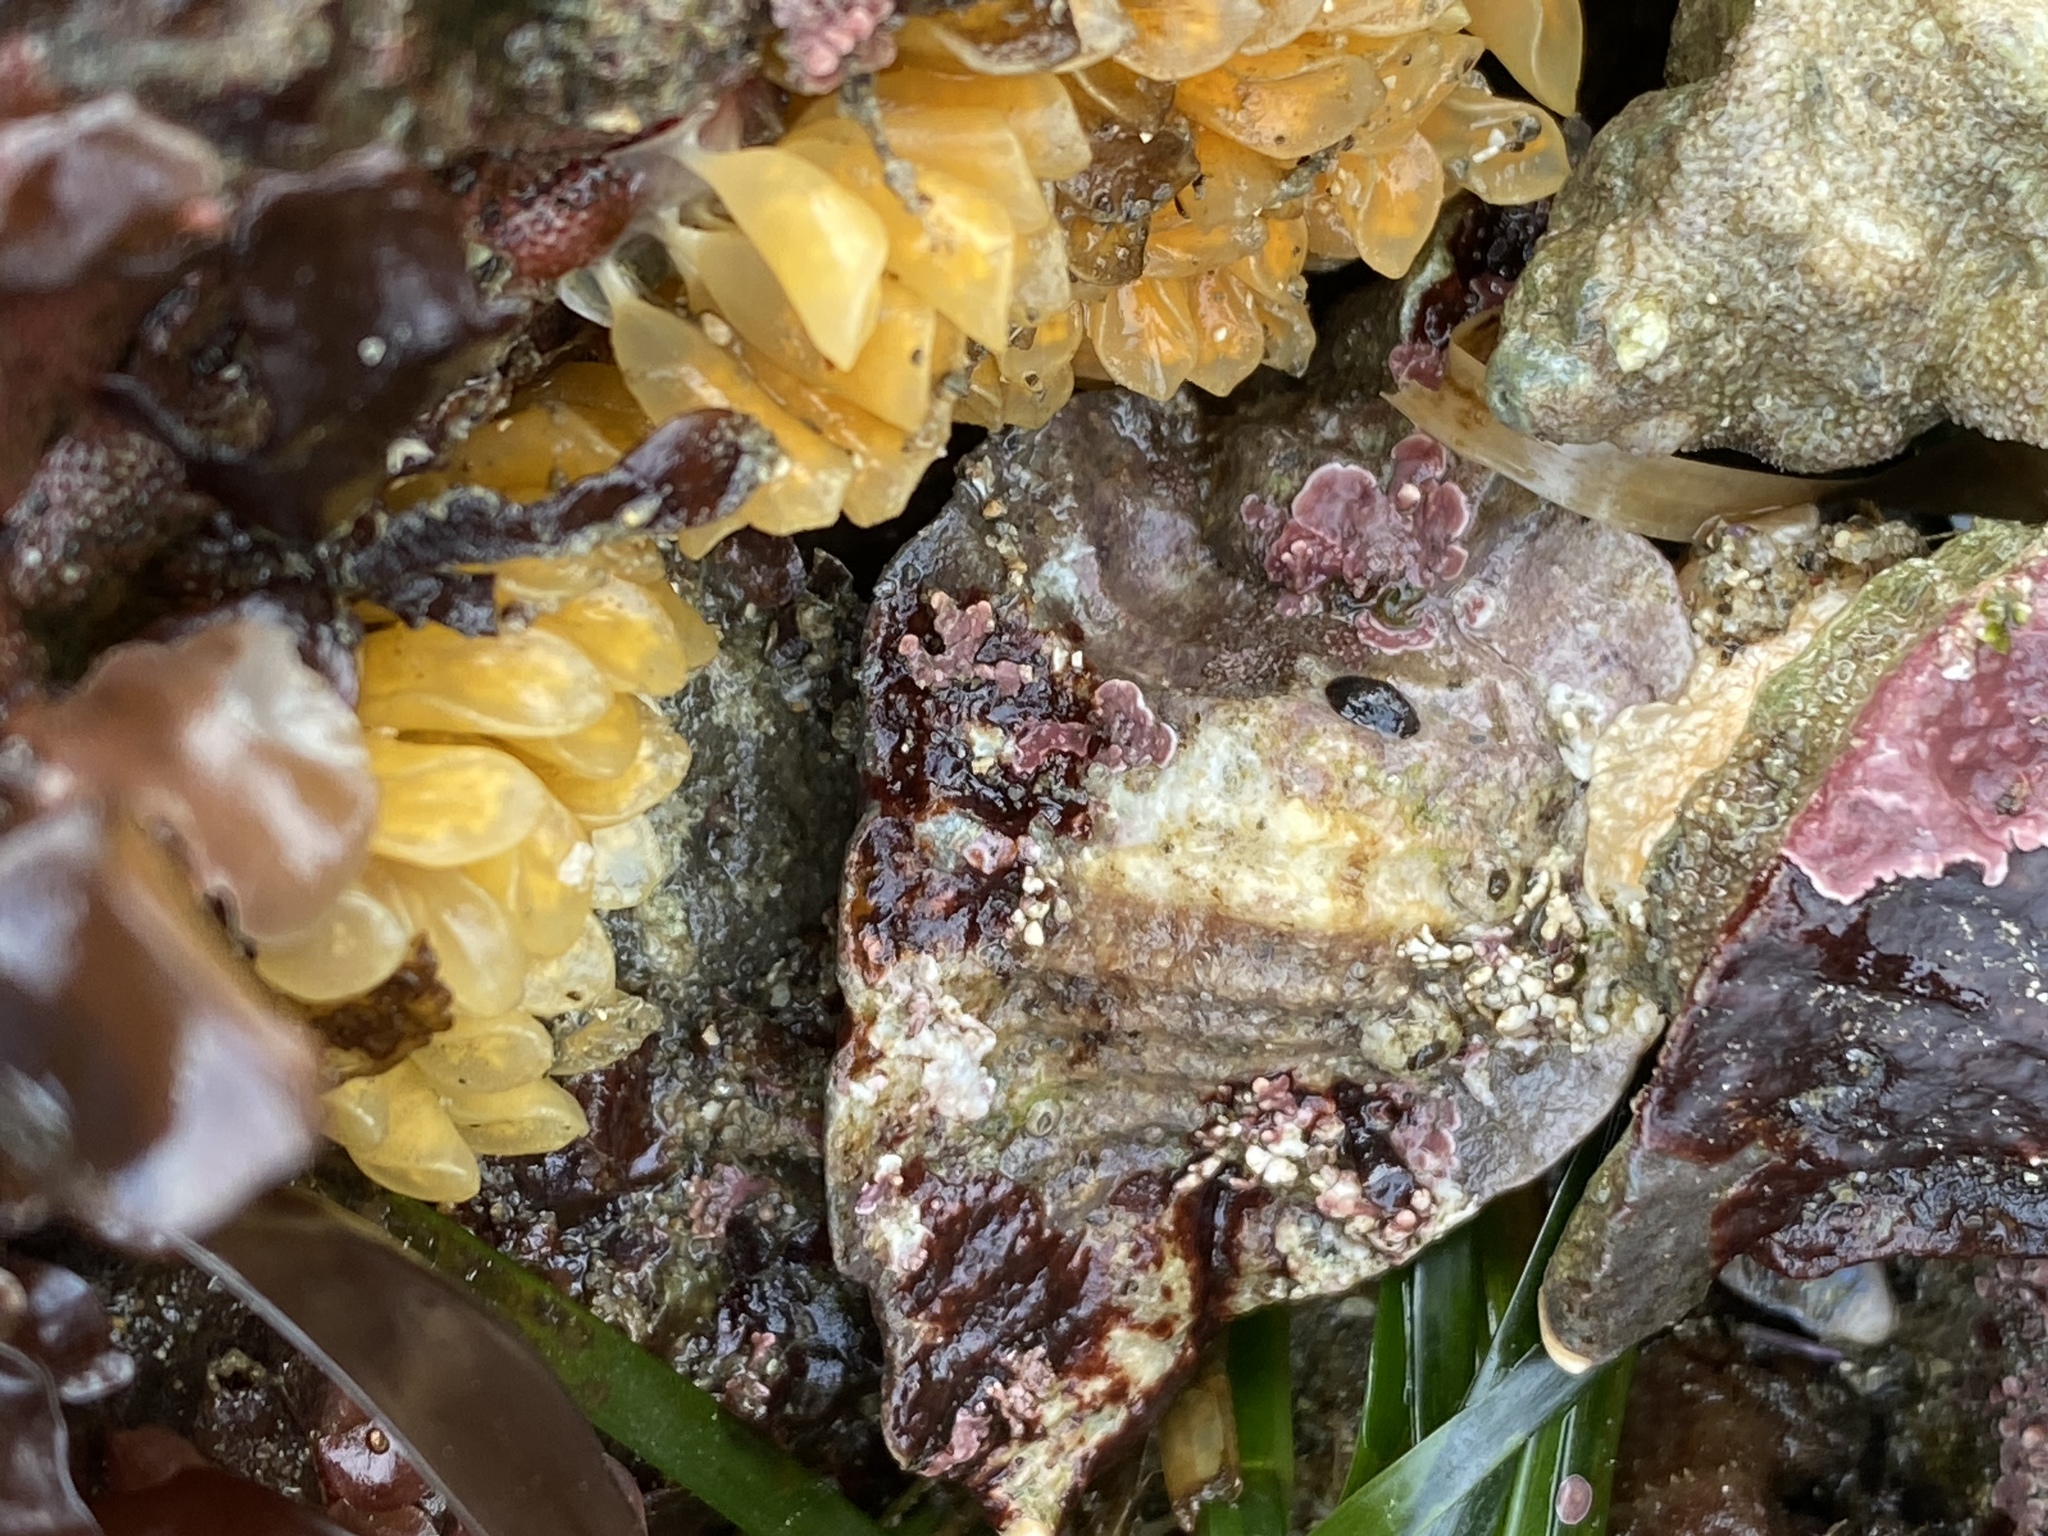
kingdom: Animalia
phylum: Mollusca
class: Gastropoda
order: Neogastropoda
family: Muricidae
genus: Ceratostoma
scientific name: Ceratostoma foliatum
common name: Foliate thorn purpura
